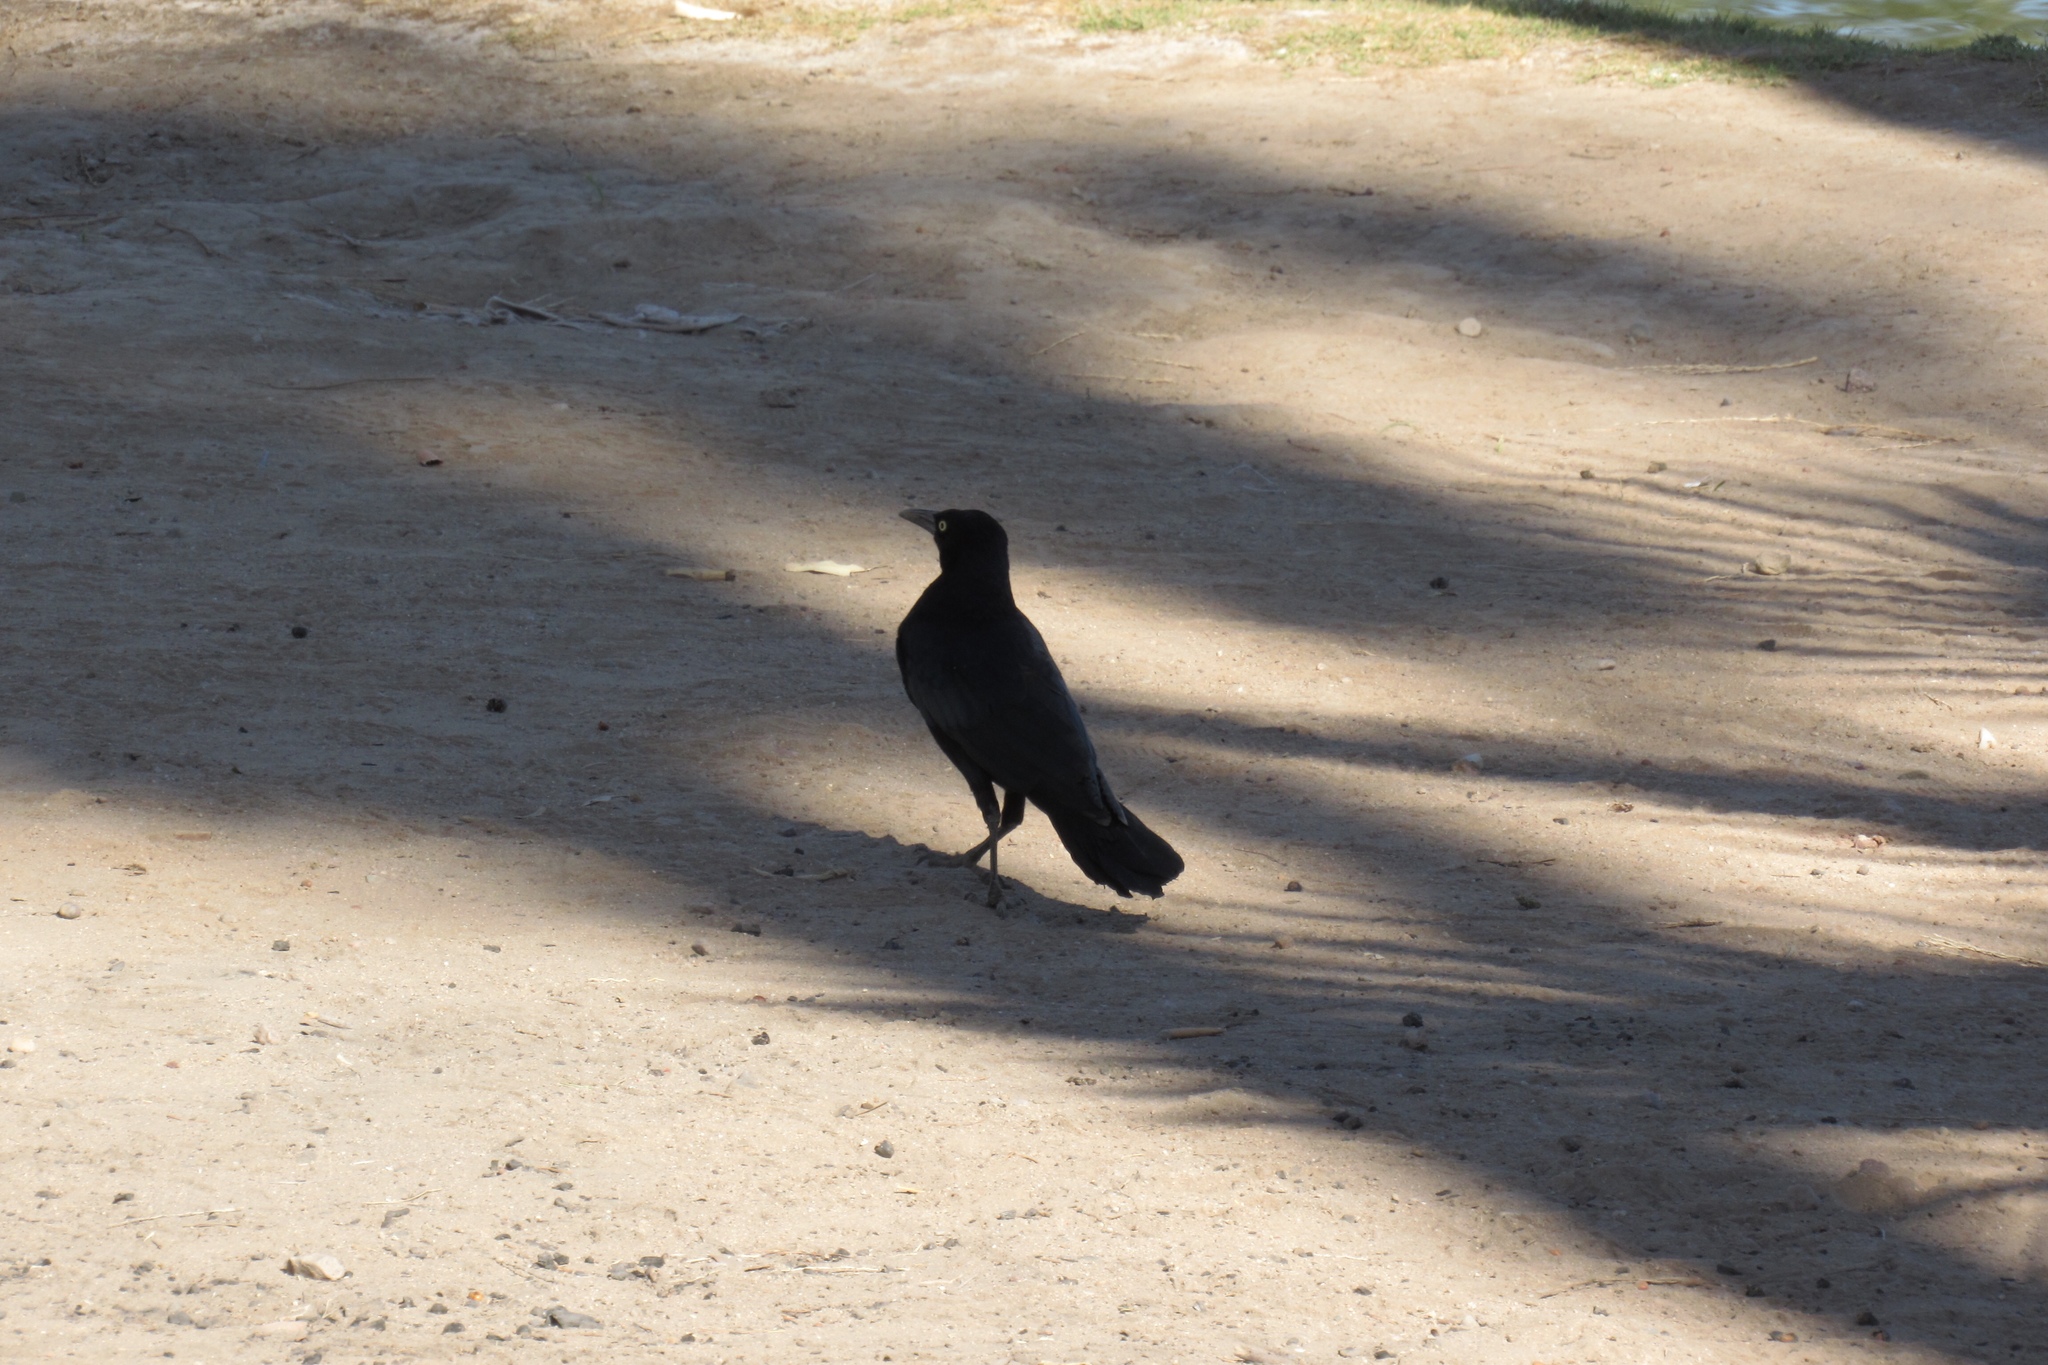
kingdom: Animalia
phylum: Chordata
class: Aves
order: Passeriformes
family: Icteridae
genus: Quiscalus
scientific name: Quiscalus mexicanus
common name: Great-tailed grackle
